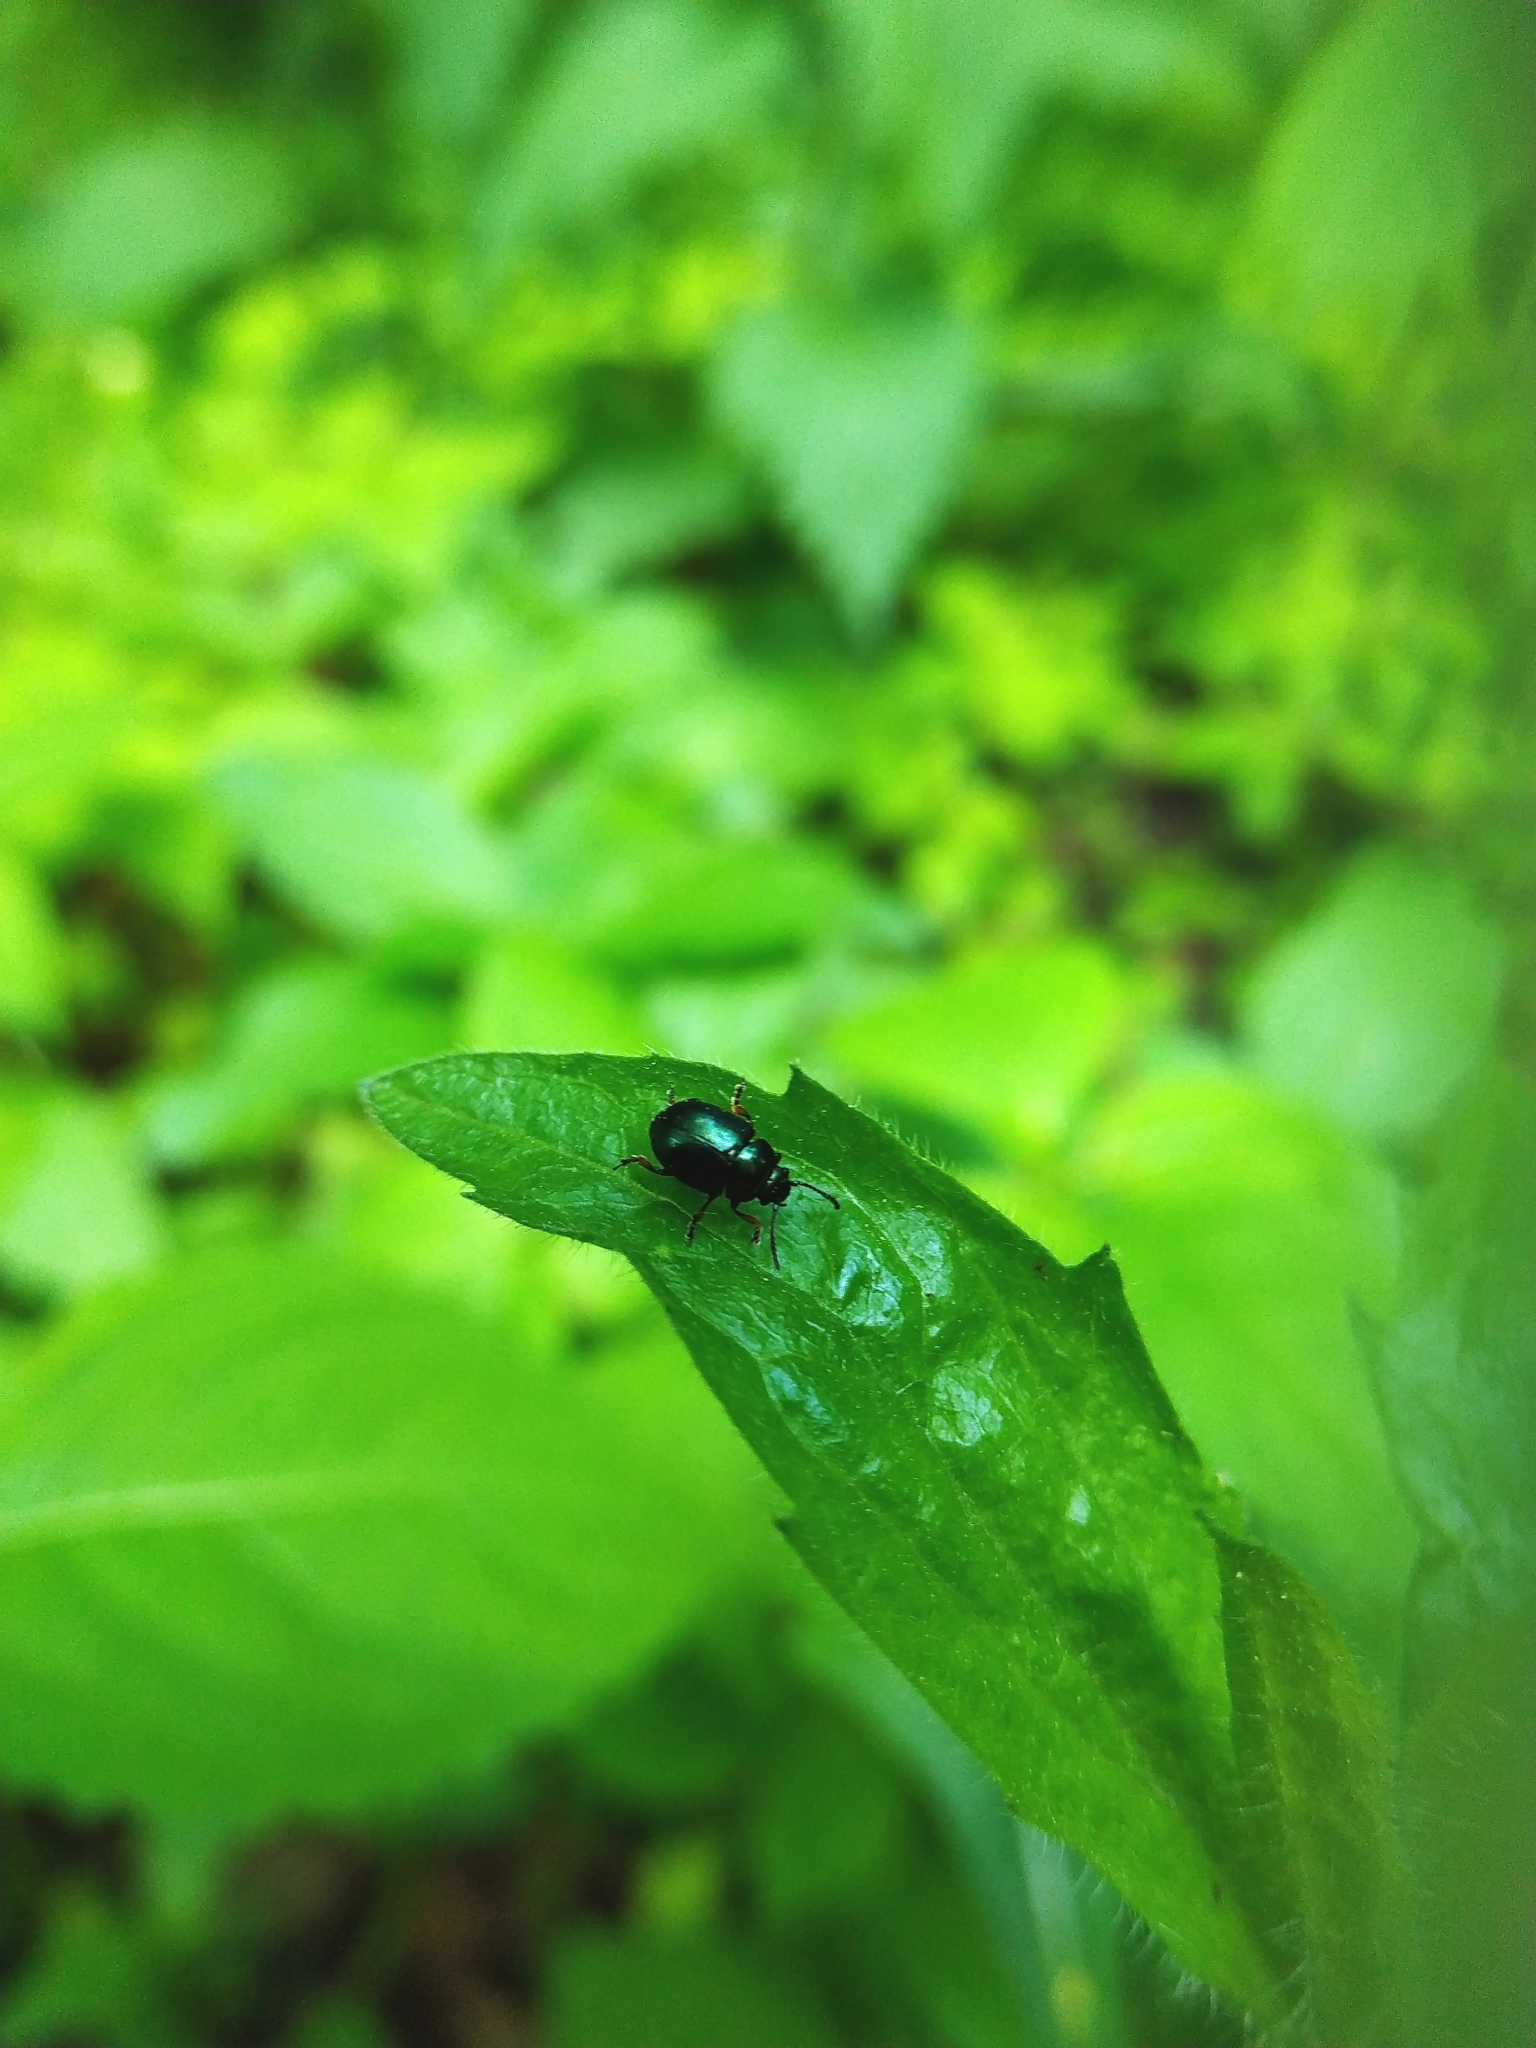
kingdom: Animalia
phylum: Arthropoda
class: Insecta
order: Coleoptera
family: Chrysomelidae
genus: Colaphellus
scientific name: Colaphellus sophiae
